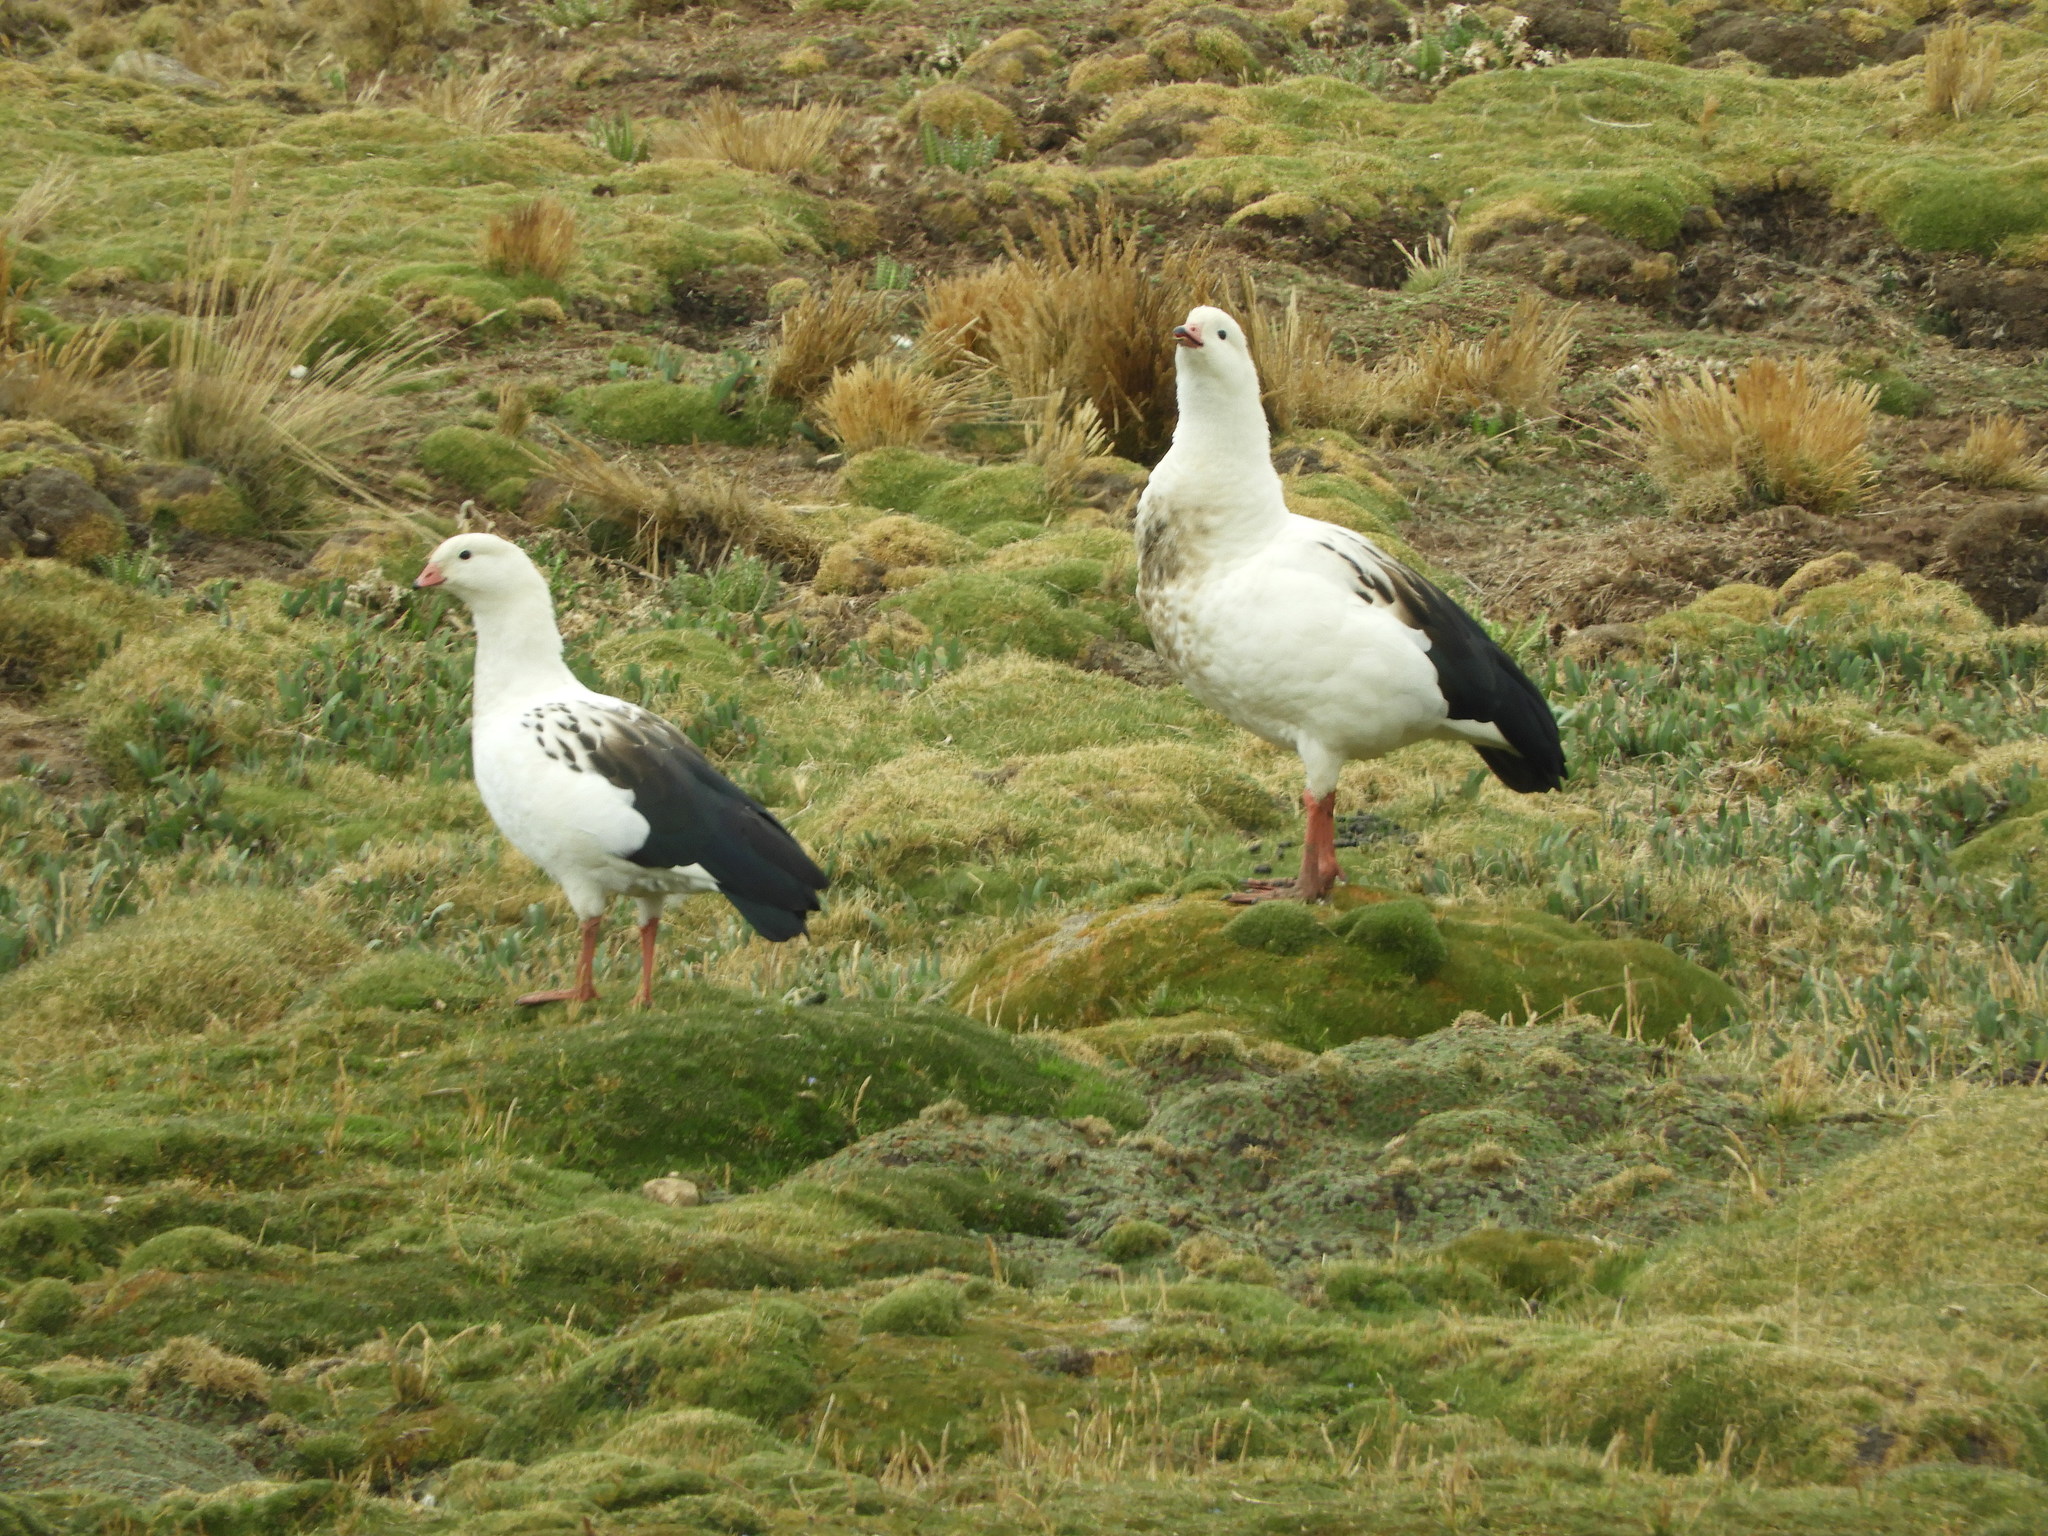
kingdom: Animalia
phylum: Chordata
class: Aves
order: Anseriformes
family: Anatidae
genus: Chloephaga
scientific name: Chloephaga melanoptera
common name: Andean goose
